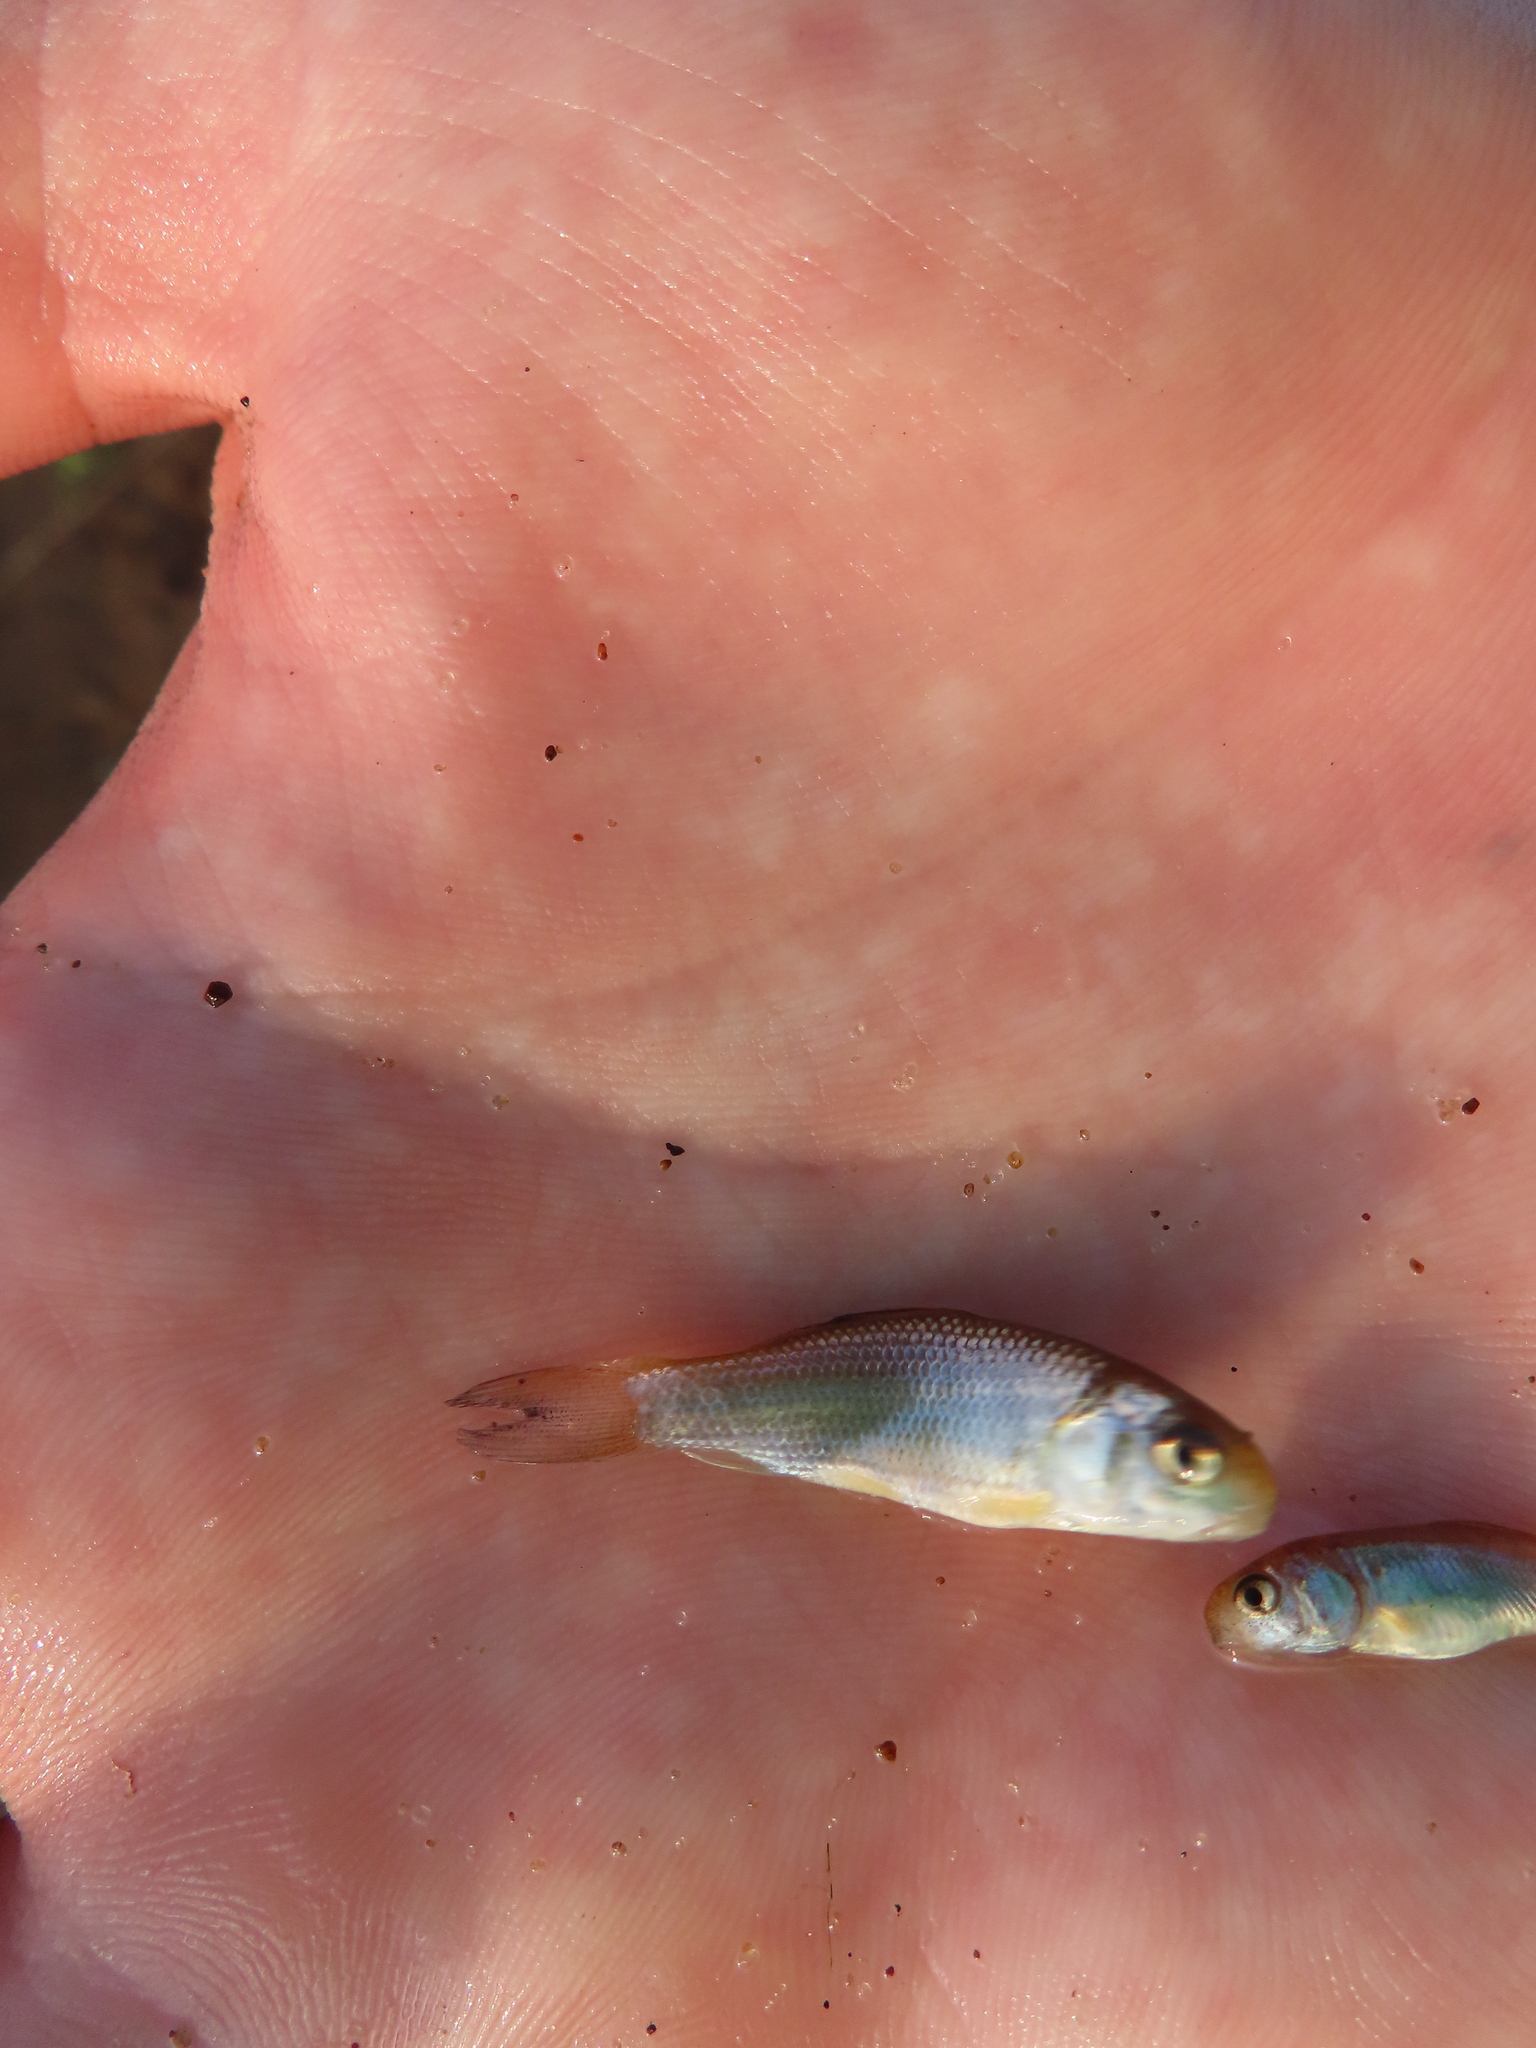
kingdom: Animalia
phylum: Chordata
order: Cypriniformes
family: Catostomidae
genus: Carpiodes
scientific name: Carpiodes
